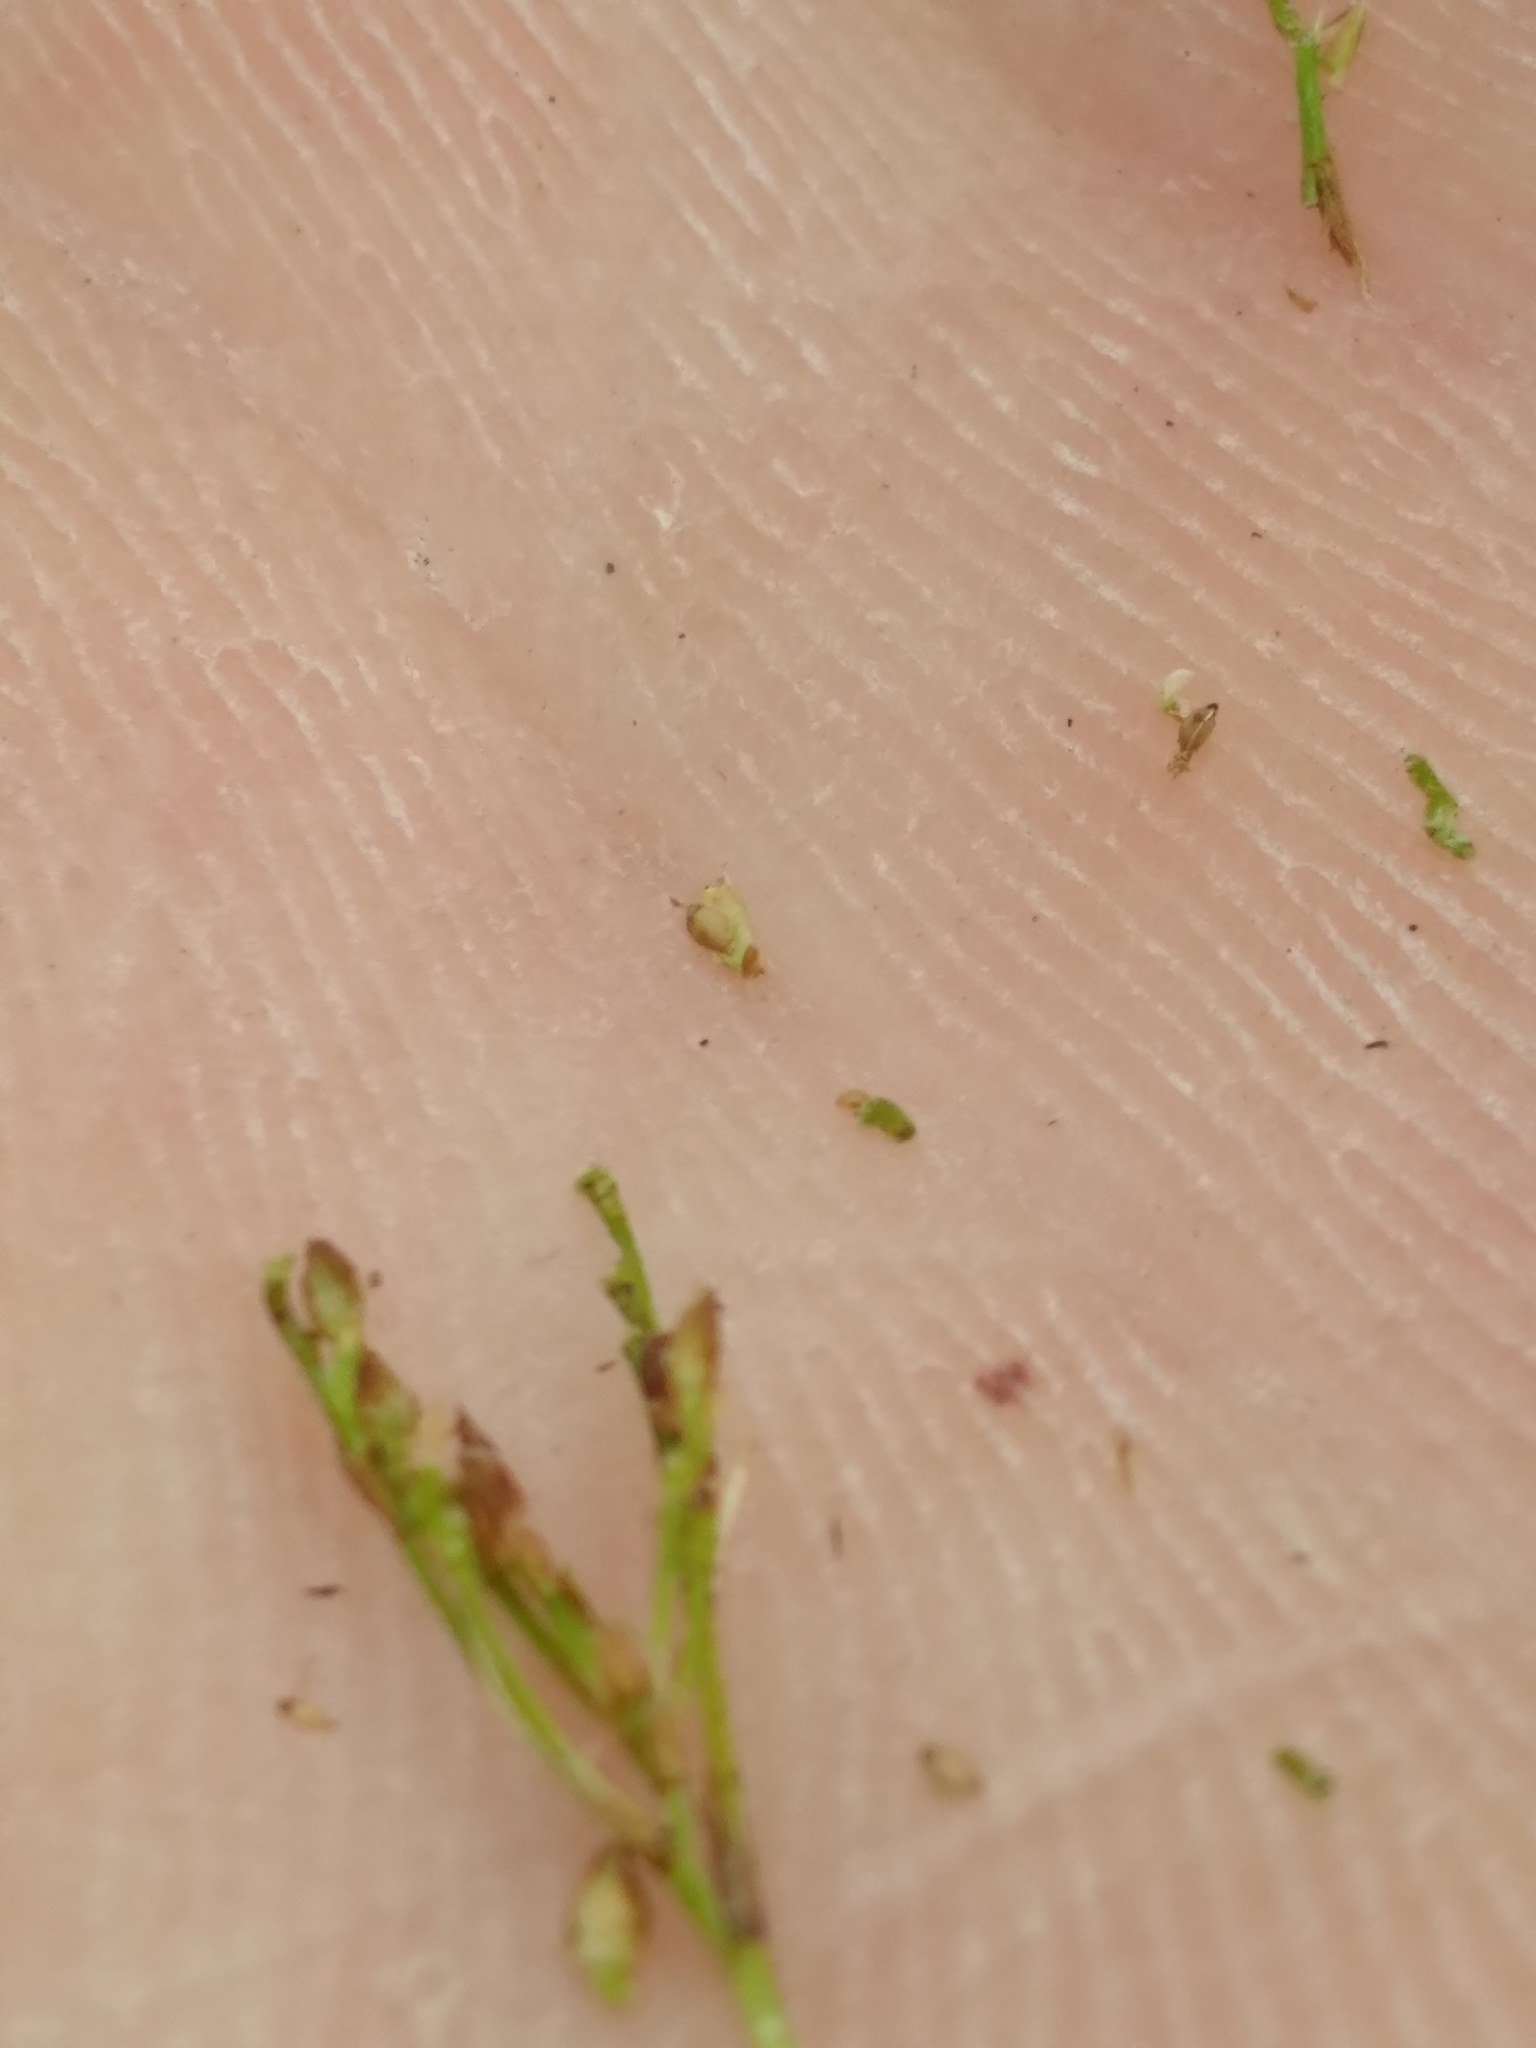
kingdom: Plantae
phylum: Tracheophyta
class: Liliopsida
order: Poales
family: Cyperaceae
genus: Rhynchospora
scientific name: Rhynchospora divergens
